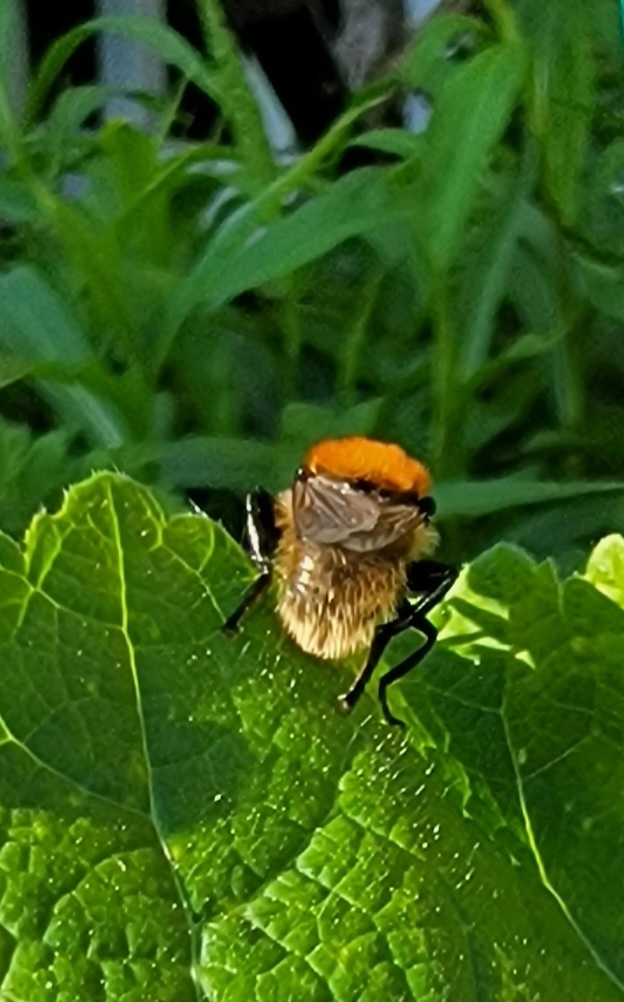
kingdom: Animalia
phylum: Arthropoda
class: Insecta
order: Diptera
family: Syrphidae
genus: Merodon
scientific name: Merodon equestris
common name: Greater bulb-fly
